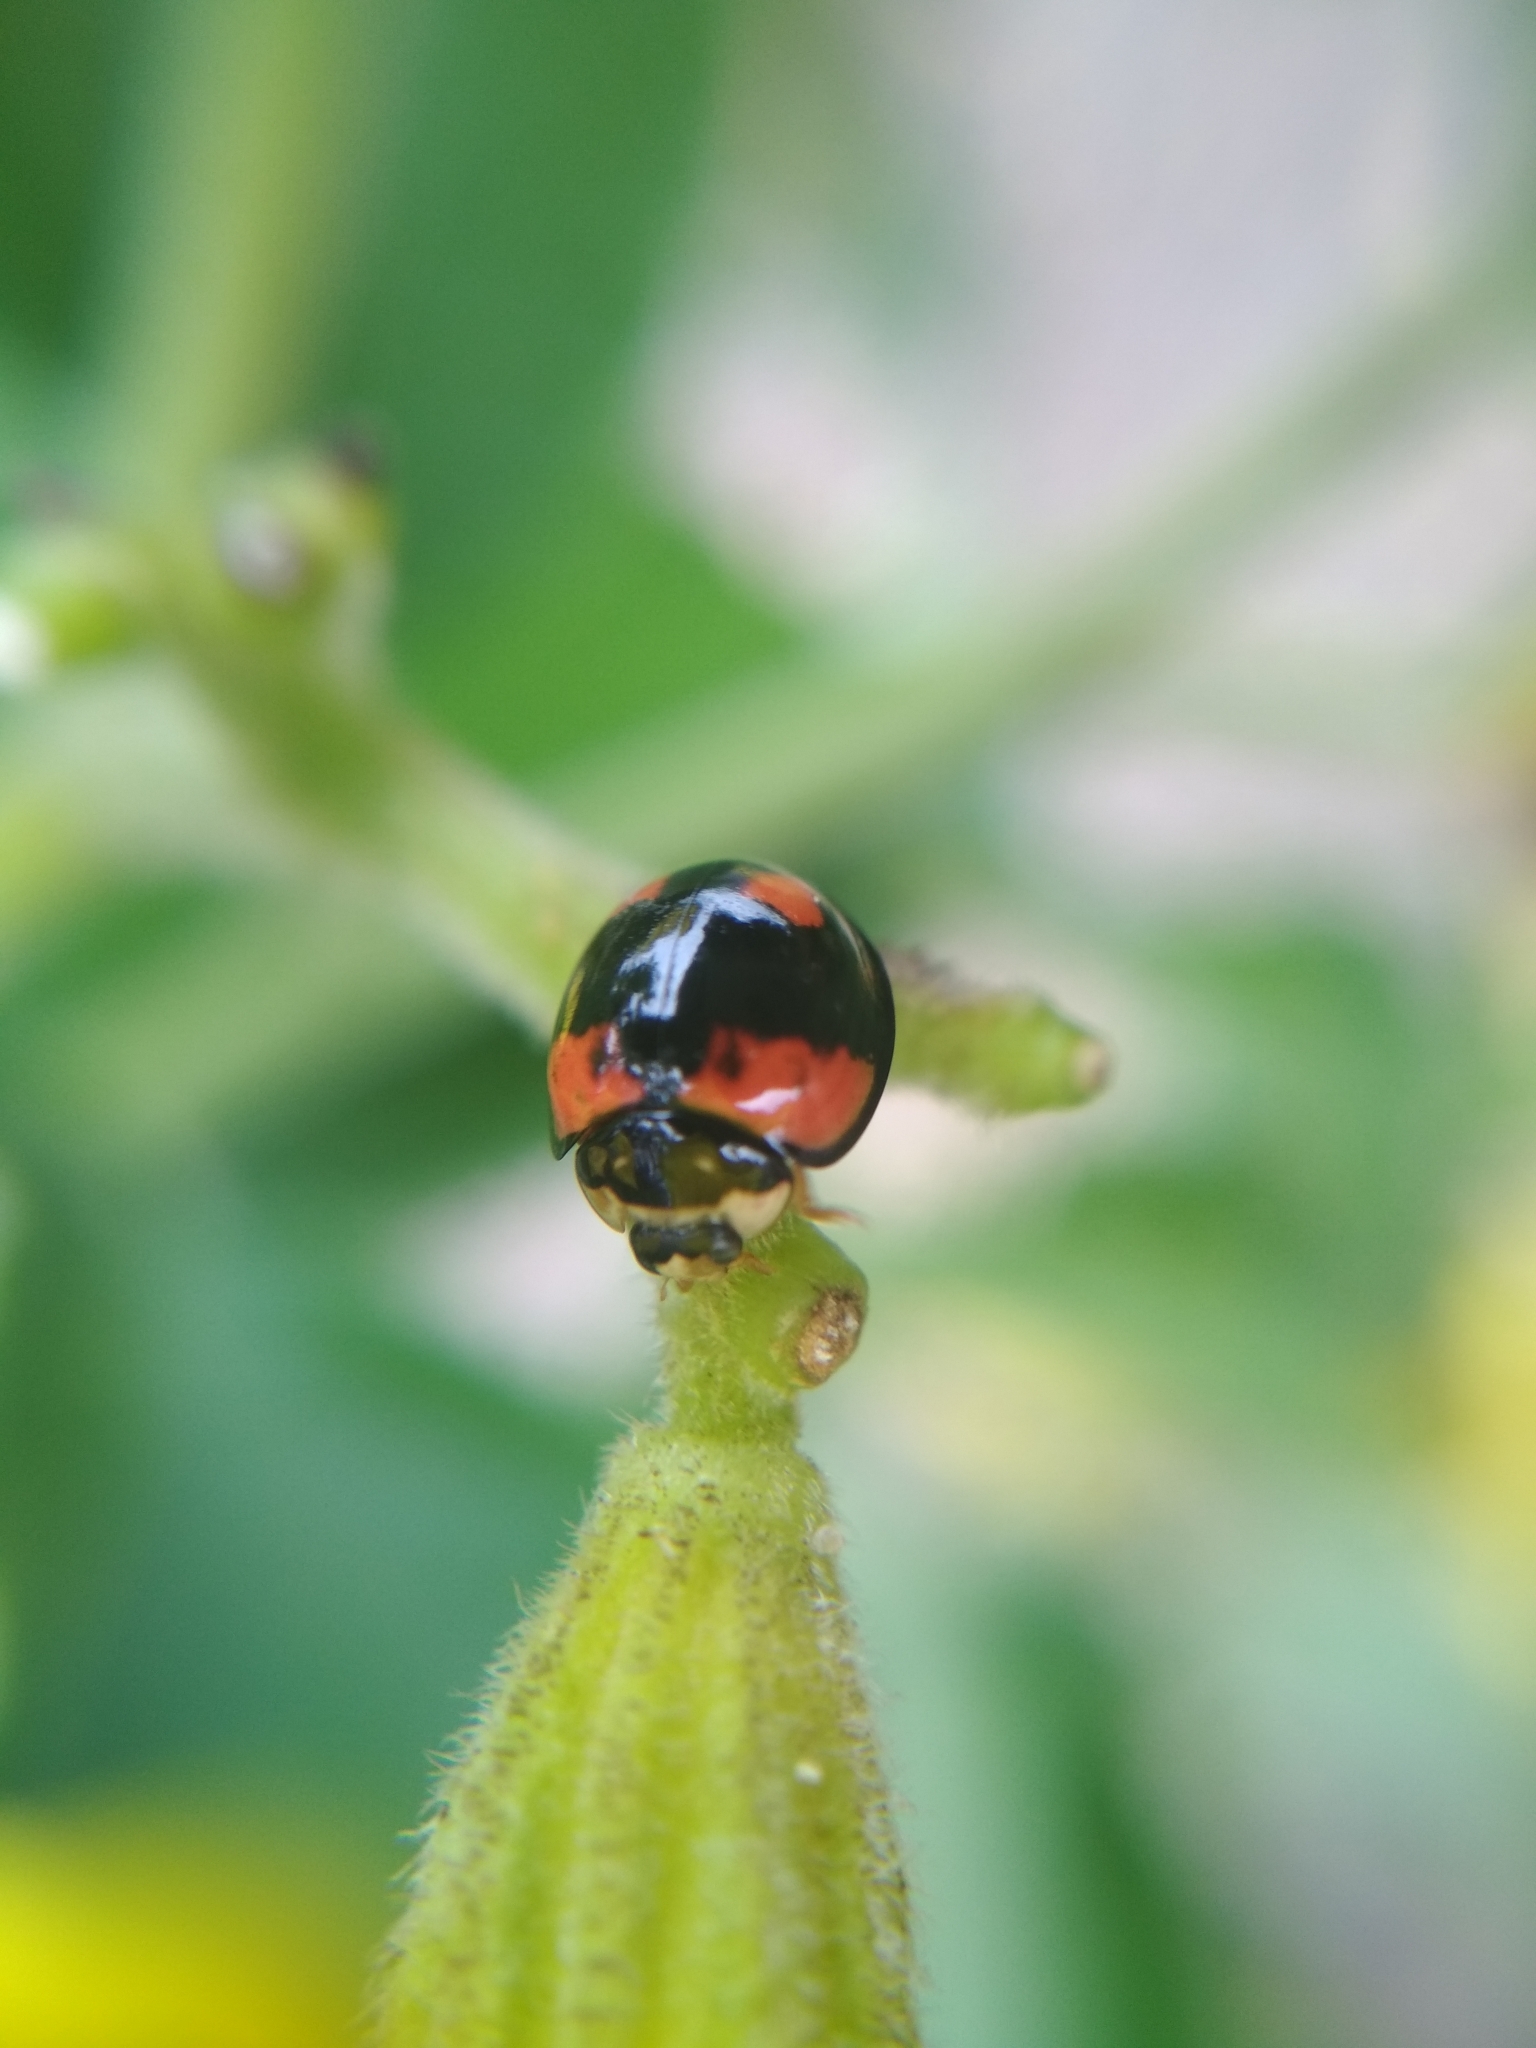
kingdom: Animalia
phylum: Arthropoda
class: Insecta
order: Coleoptera
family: Coccinellidae
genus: Cheilomenes
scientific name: Cheilomenes sexmaculata
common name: Ladybird beetle
